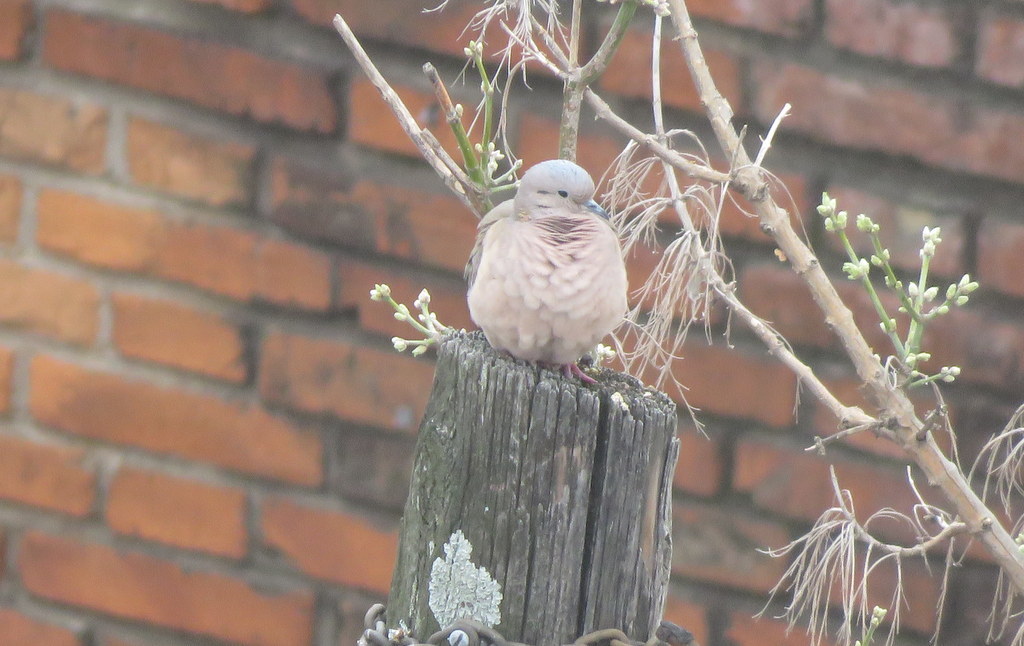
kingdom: Animalia
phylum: Chordata
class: Aves
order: Columbiformes
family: Columbidae
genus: Zenaida
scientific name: Zenaida auriculata
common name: Eared dove
